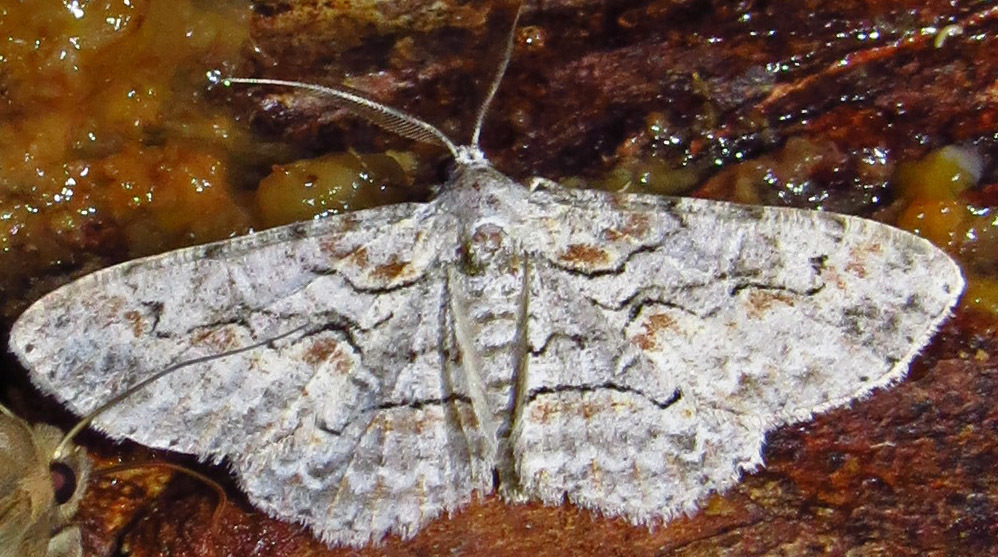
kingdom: Animalia
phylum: Arthropoda
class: Insecta
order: Lepidoptera
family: Geometridae
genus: Iridopsis
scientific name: Iridopsis defectaria
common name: Brown-shaded gray
